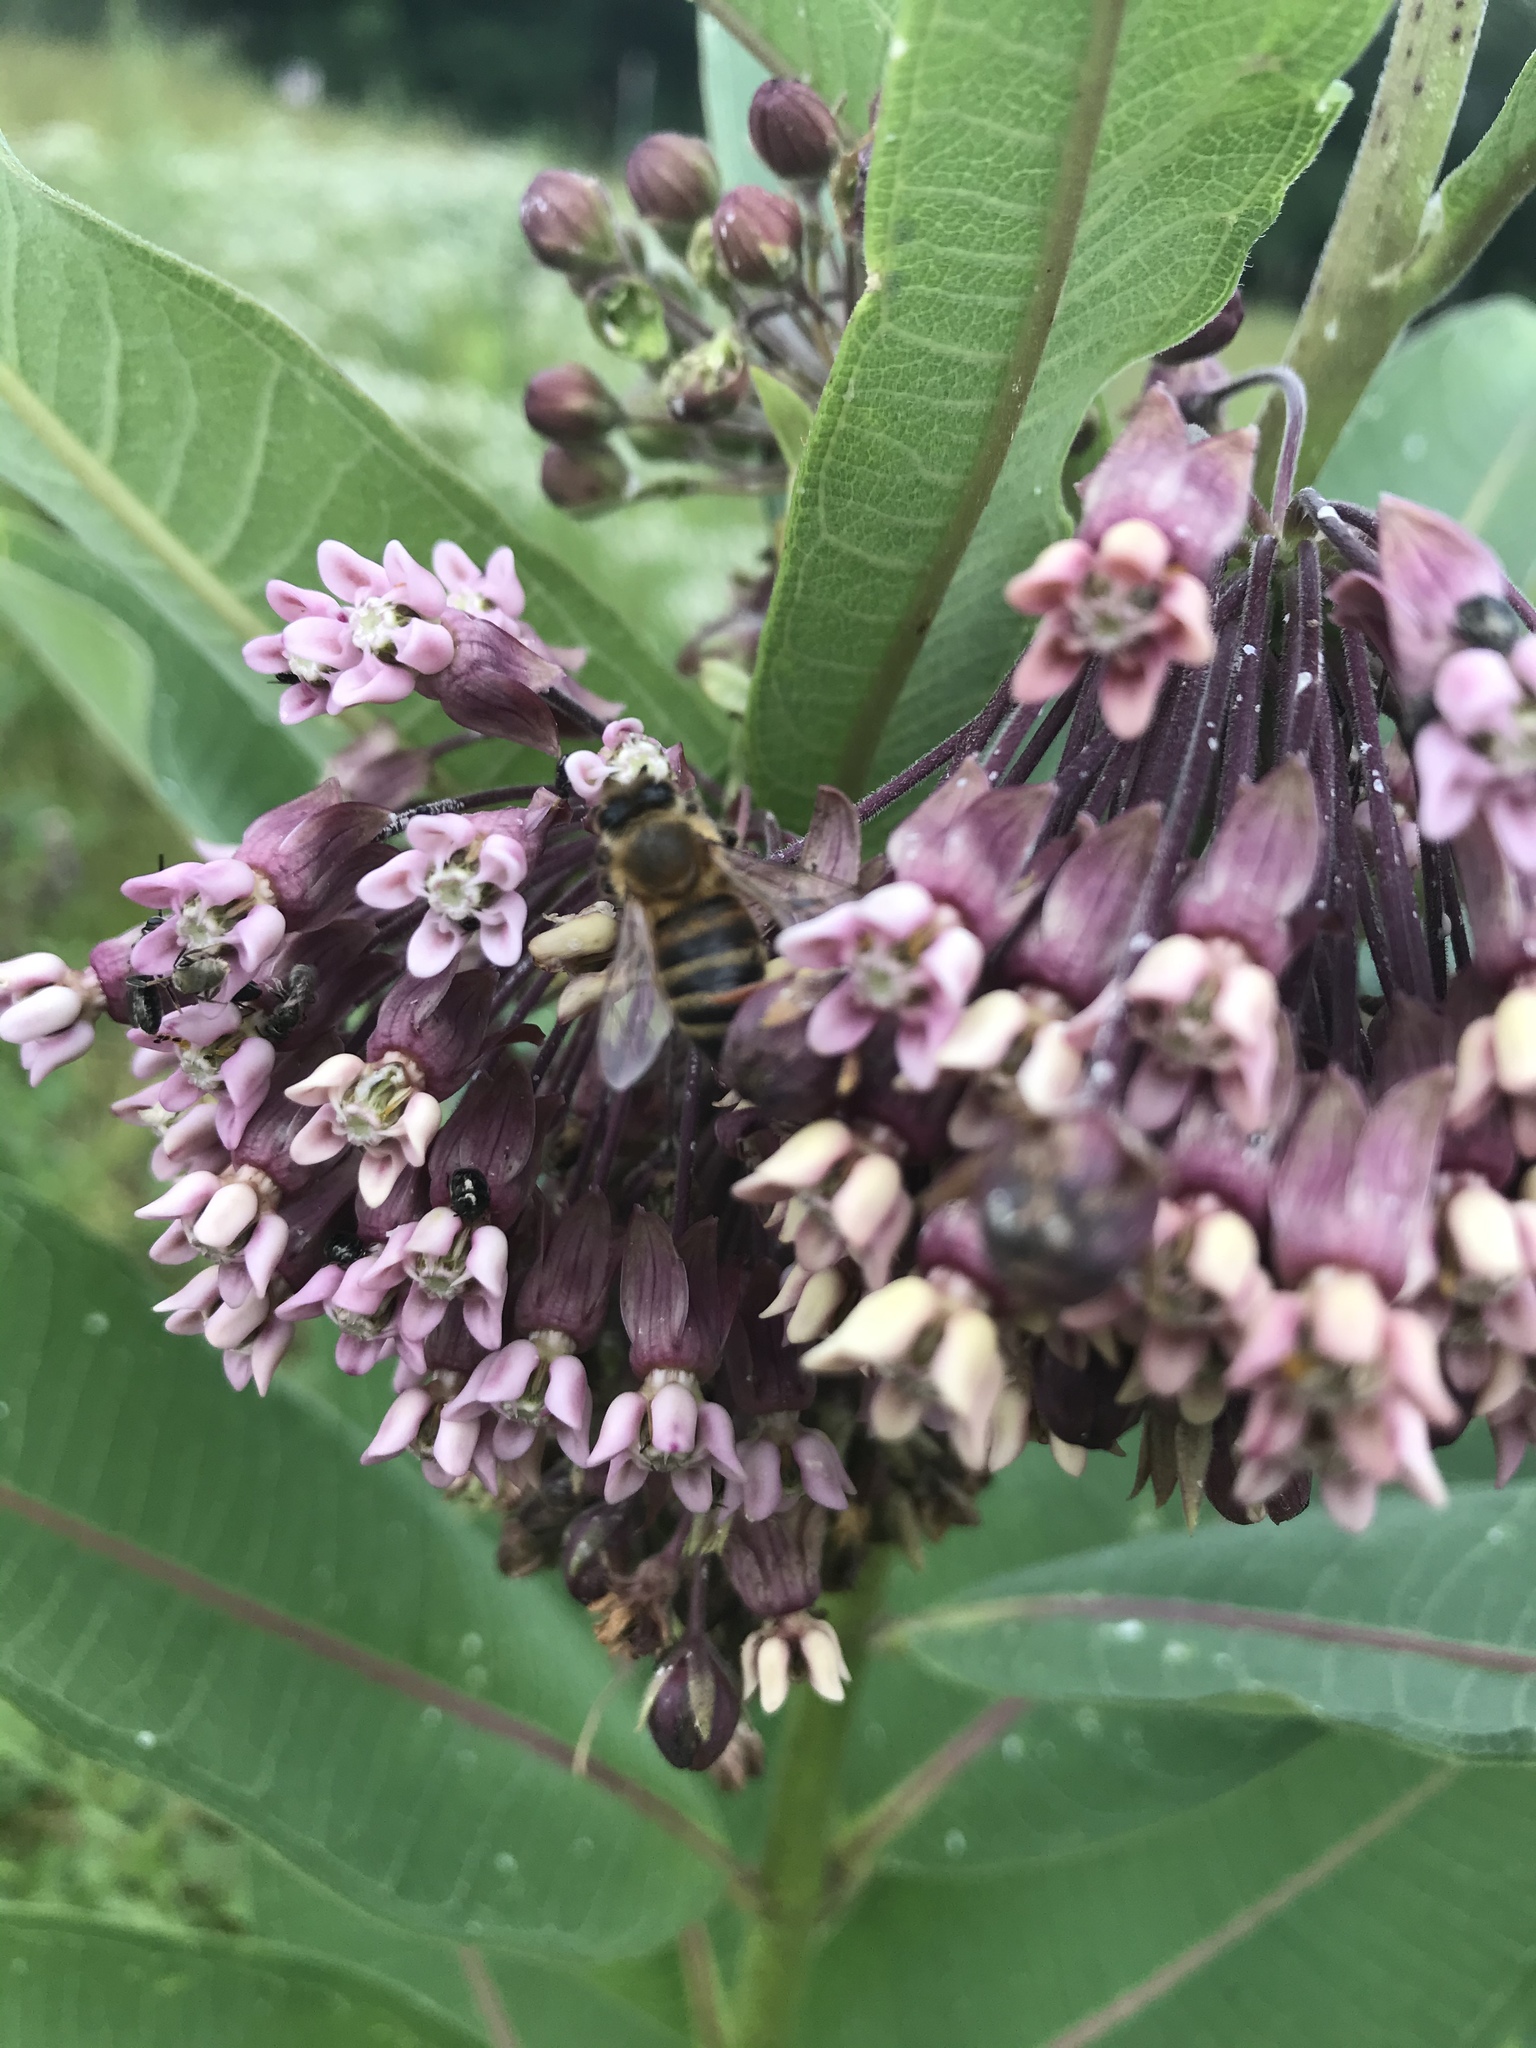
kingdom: Animalia
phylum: Arthropoda
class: Insecta
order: Hymenoptera
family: Apidae
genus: Apis
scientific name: Apis mellifera
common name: Honey bee
